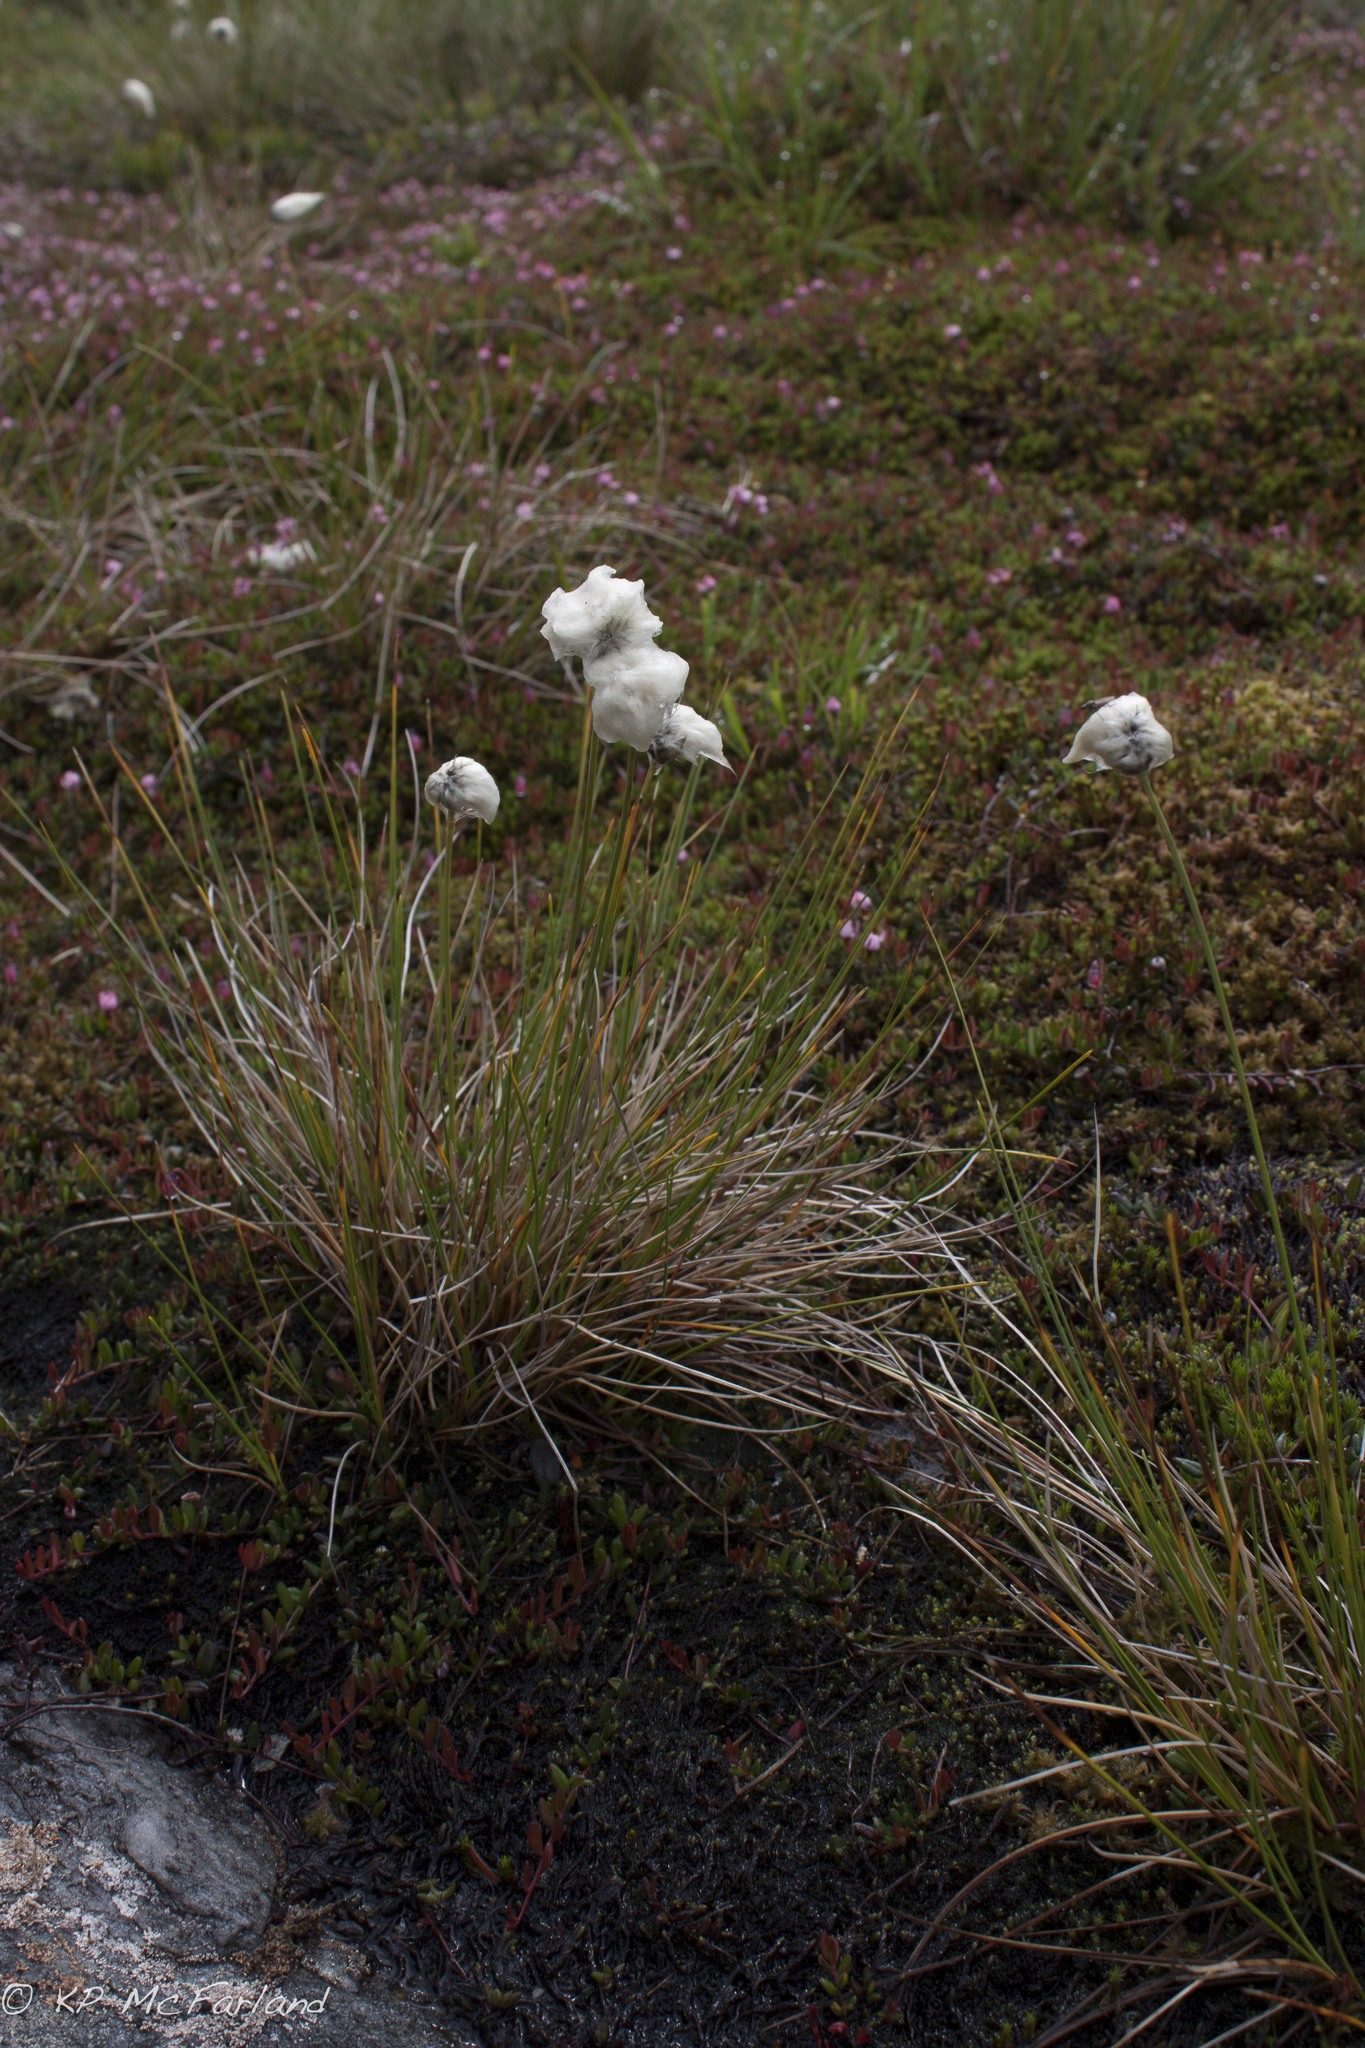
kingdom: Plantae
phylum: Tracheophyta
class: Liliopsida
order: Poales
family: Cyperaceae
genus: Eriophorum
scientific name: Eriophorum vaginatum
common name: Hare's-tail cottongrass
